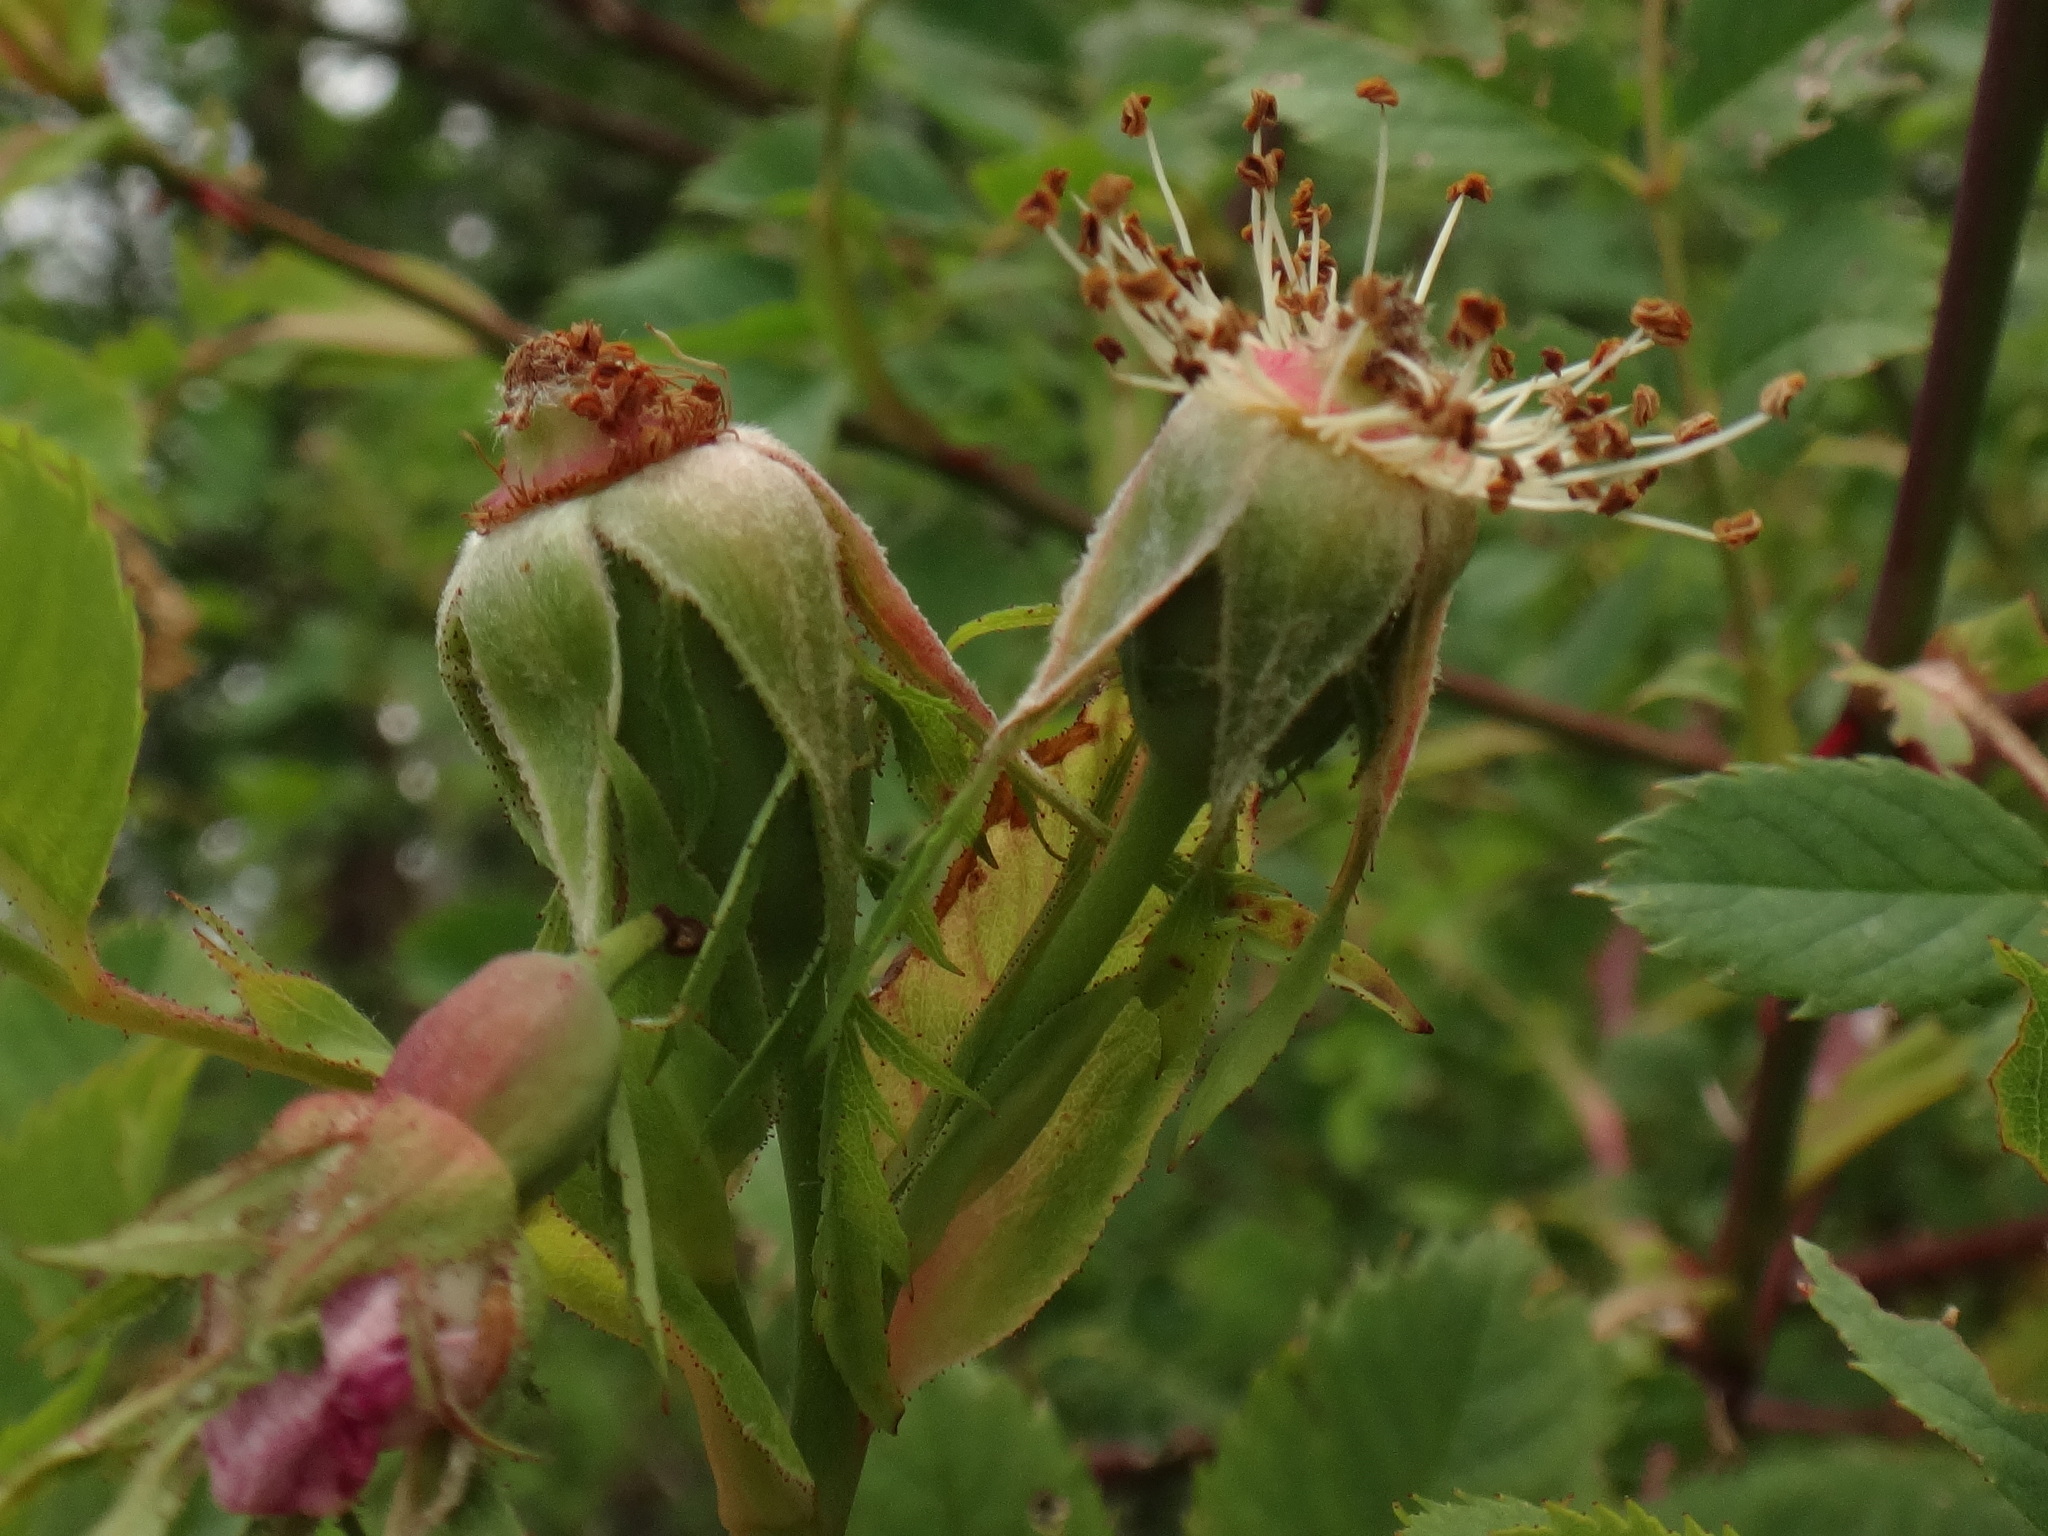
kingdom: Plantae
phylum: Tracheophyta
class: Magnoliopsida
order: Rosales
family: Rosaceae
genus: Rosa
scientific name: Rosa canina
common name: Dog rose
